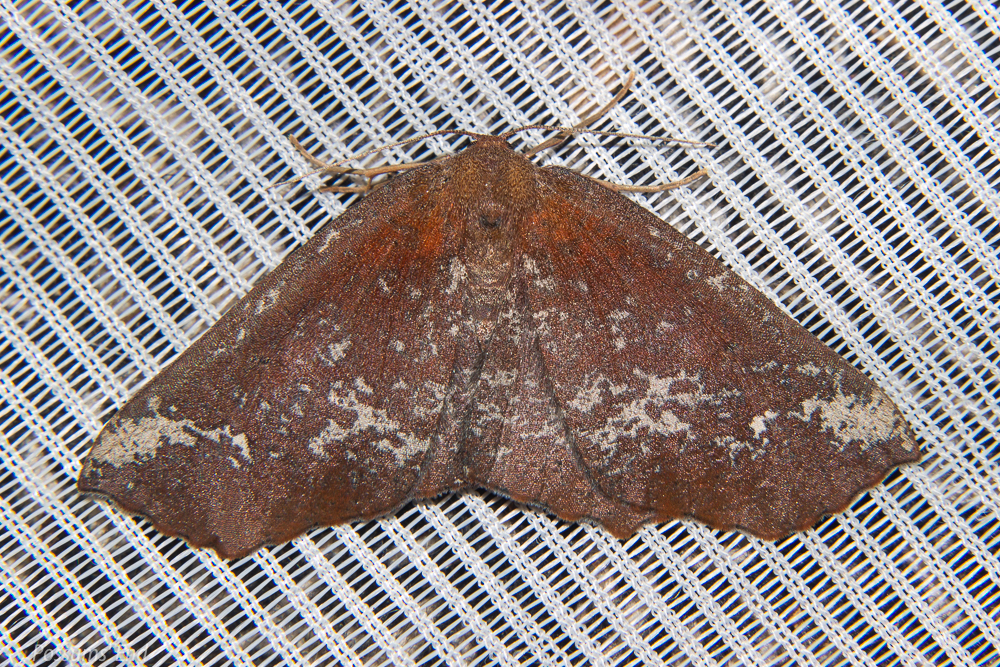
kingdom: Animalia
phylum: Arthropoda
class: Insecta
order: Lepidoptera
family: Geometridae
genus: Xyridacma
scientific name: Xyridacma ustaria
